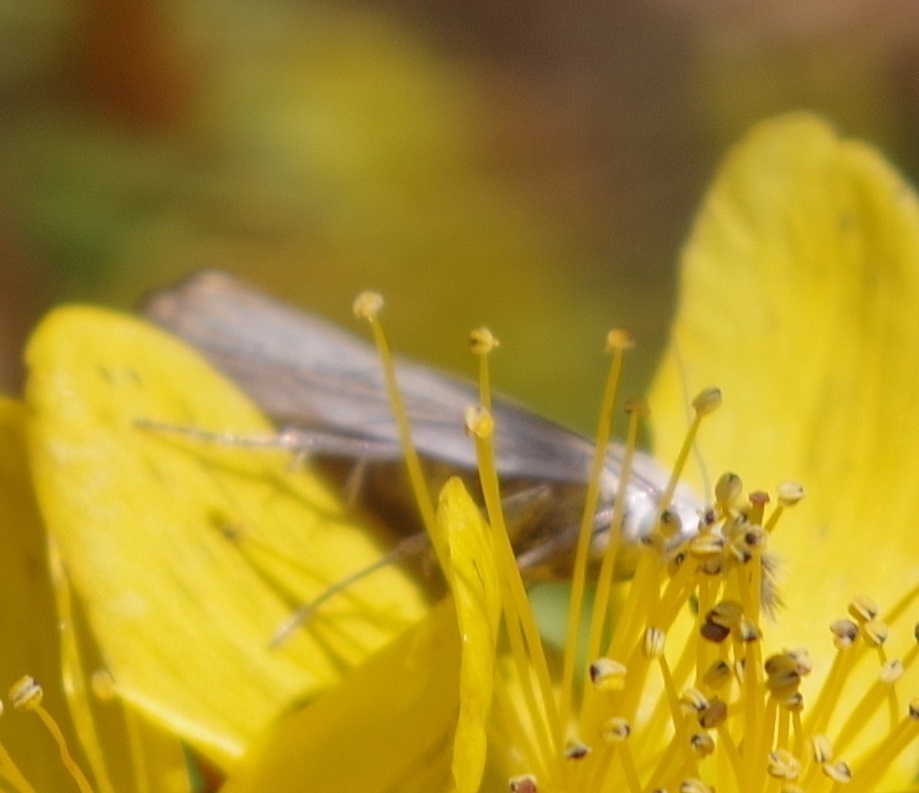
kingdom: Animalia
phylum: Arthropoda
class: Insecta
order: Lepidoptera
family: Crambidae
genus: Chrysoteuchia
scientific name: Chrysoteuchia culmella
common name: Garden grass-veneer
